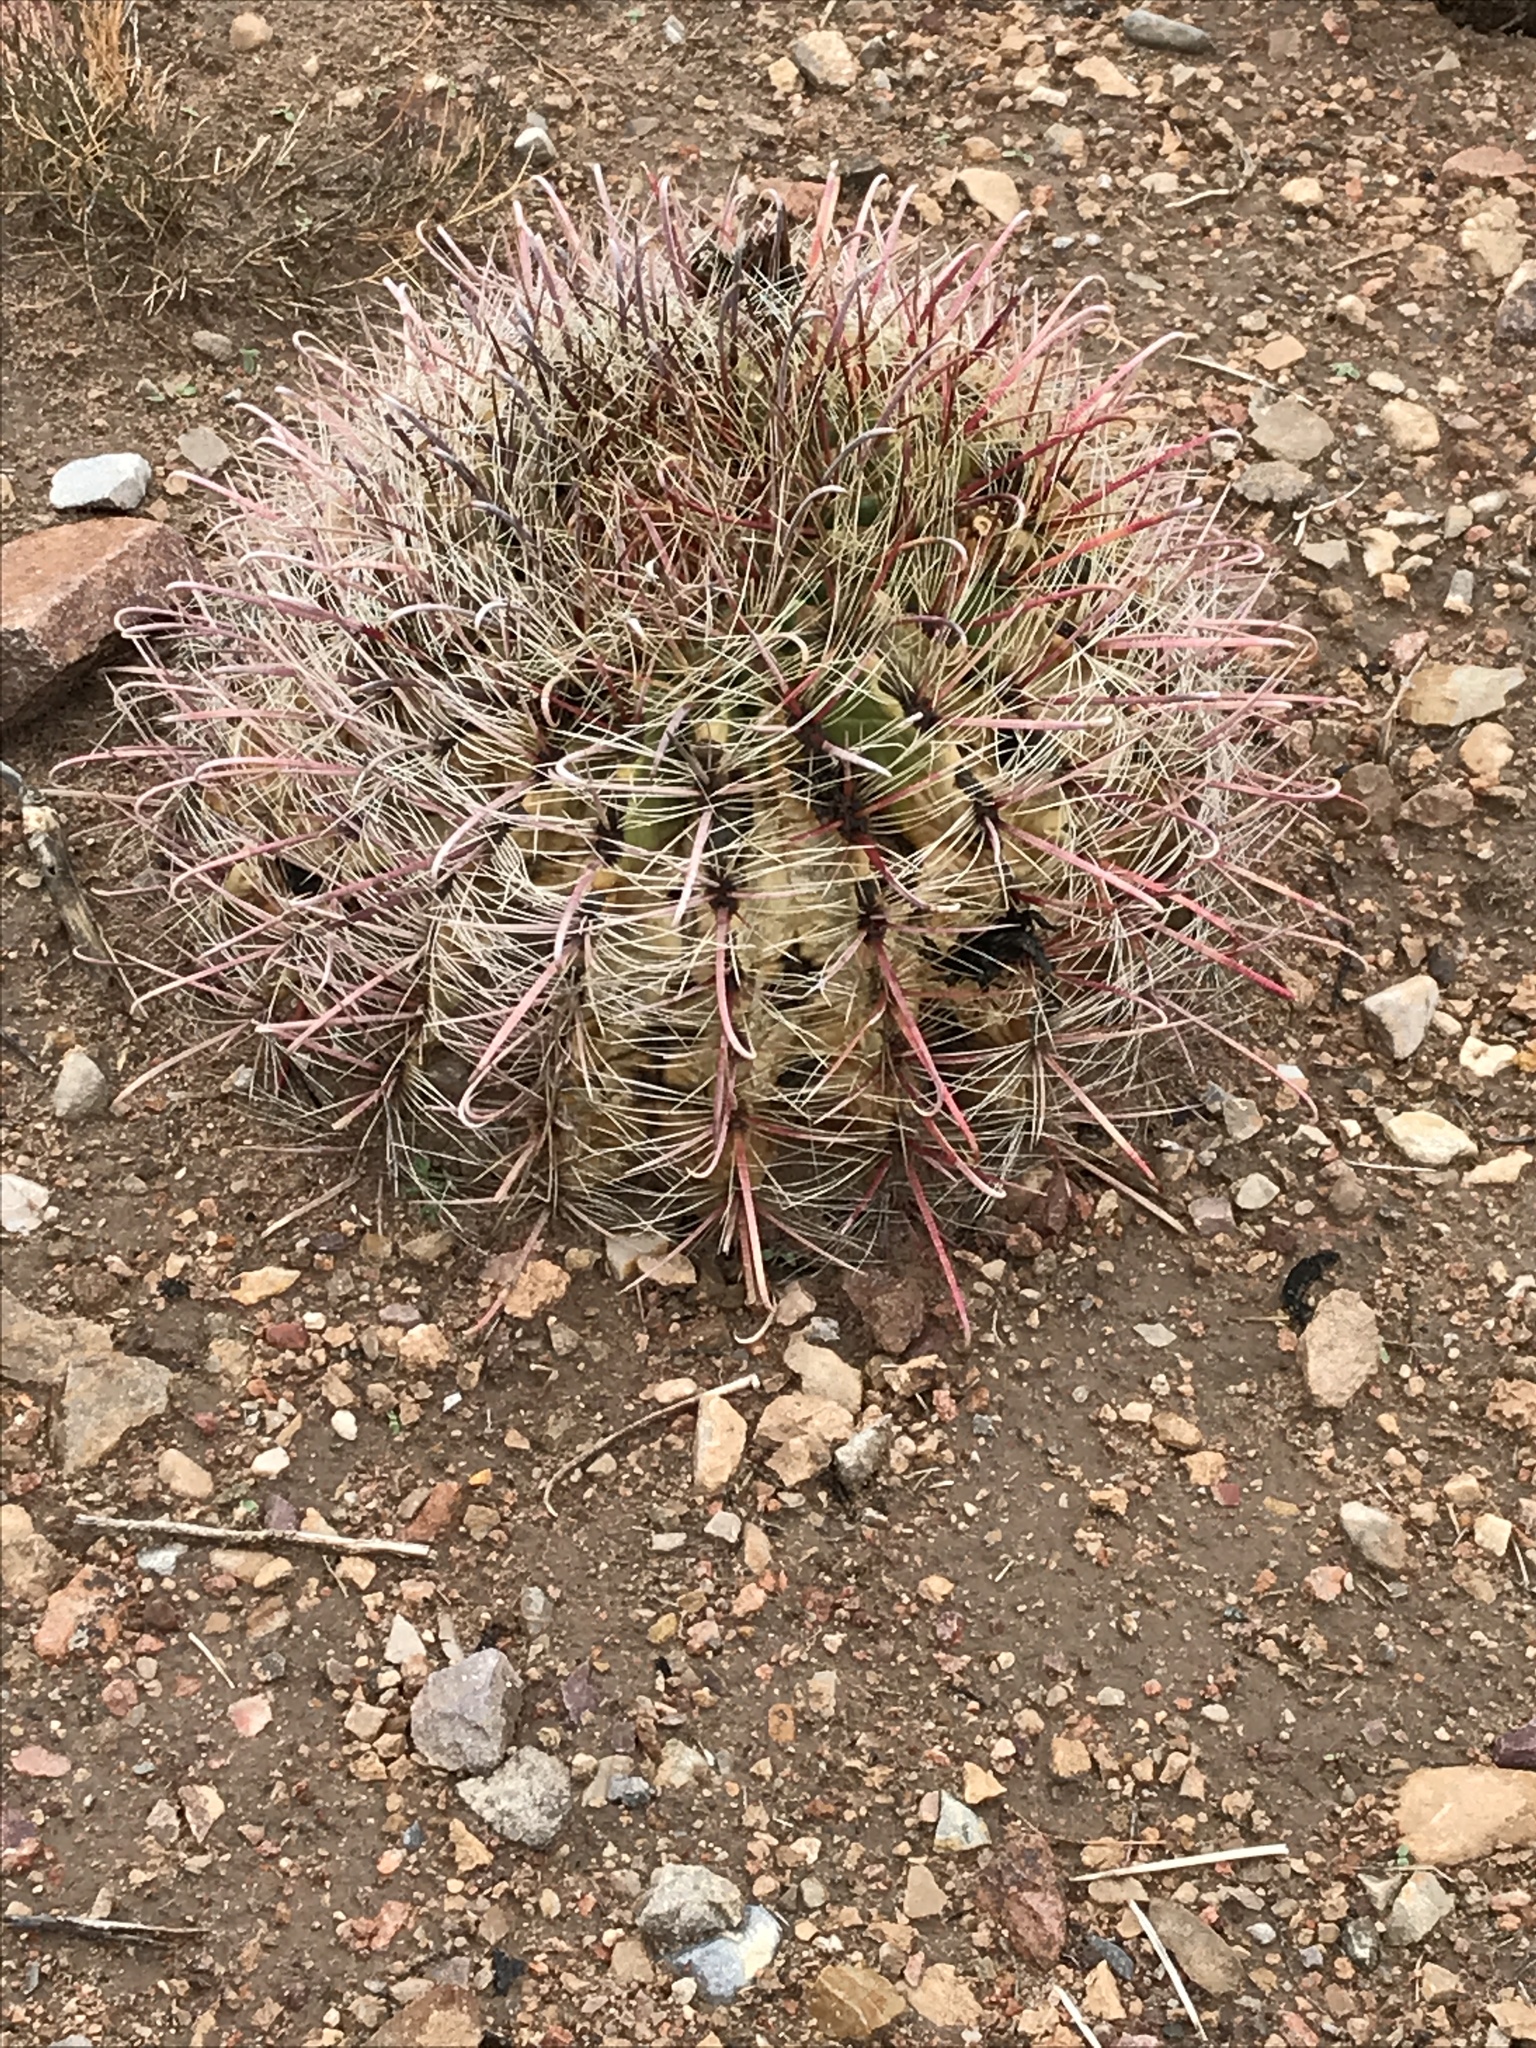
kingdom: Plantae
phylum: Tracheophyta
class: Magnoliopsida
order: Caryophyllales
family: Cactaceae
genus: Ferocactus
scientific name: Ferocactus wislizeni
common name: Candy barrel cactus
